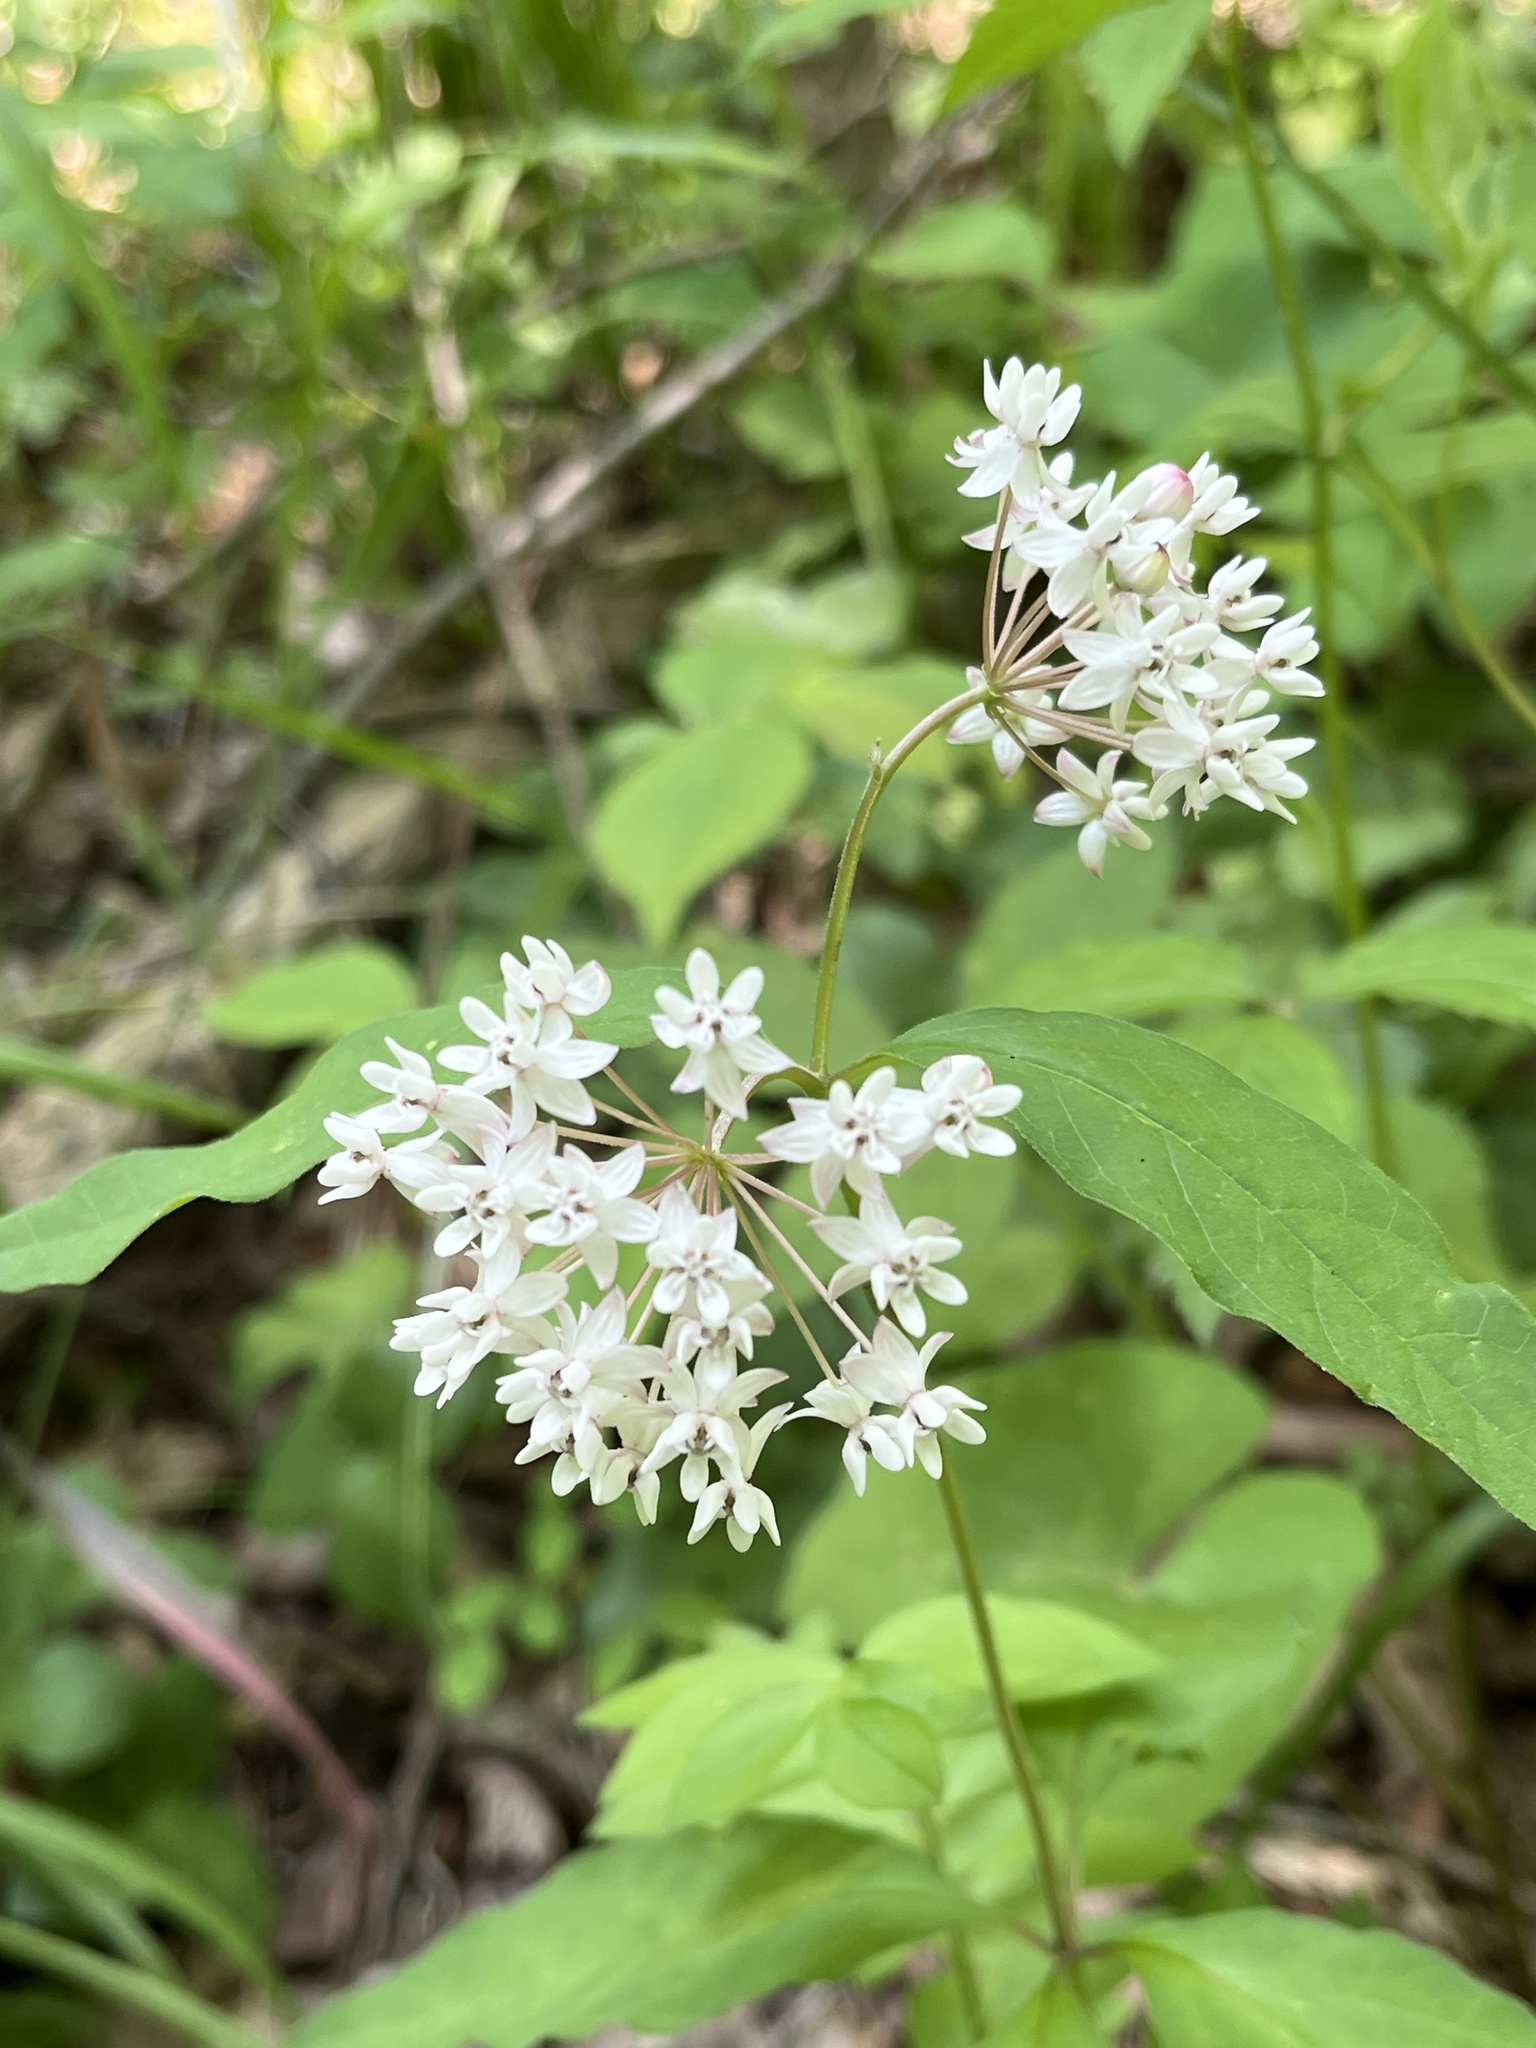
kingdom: Plantae
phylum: Tracheophyta
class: Magnoliopsida
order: Gentianales
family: Apocynaceae
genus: Asclepias
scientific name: Asclepias quadrifolia
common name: Whorled milkweed
